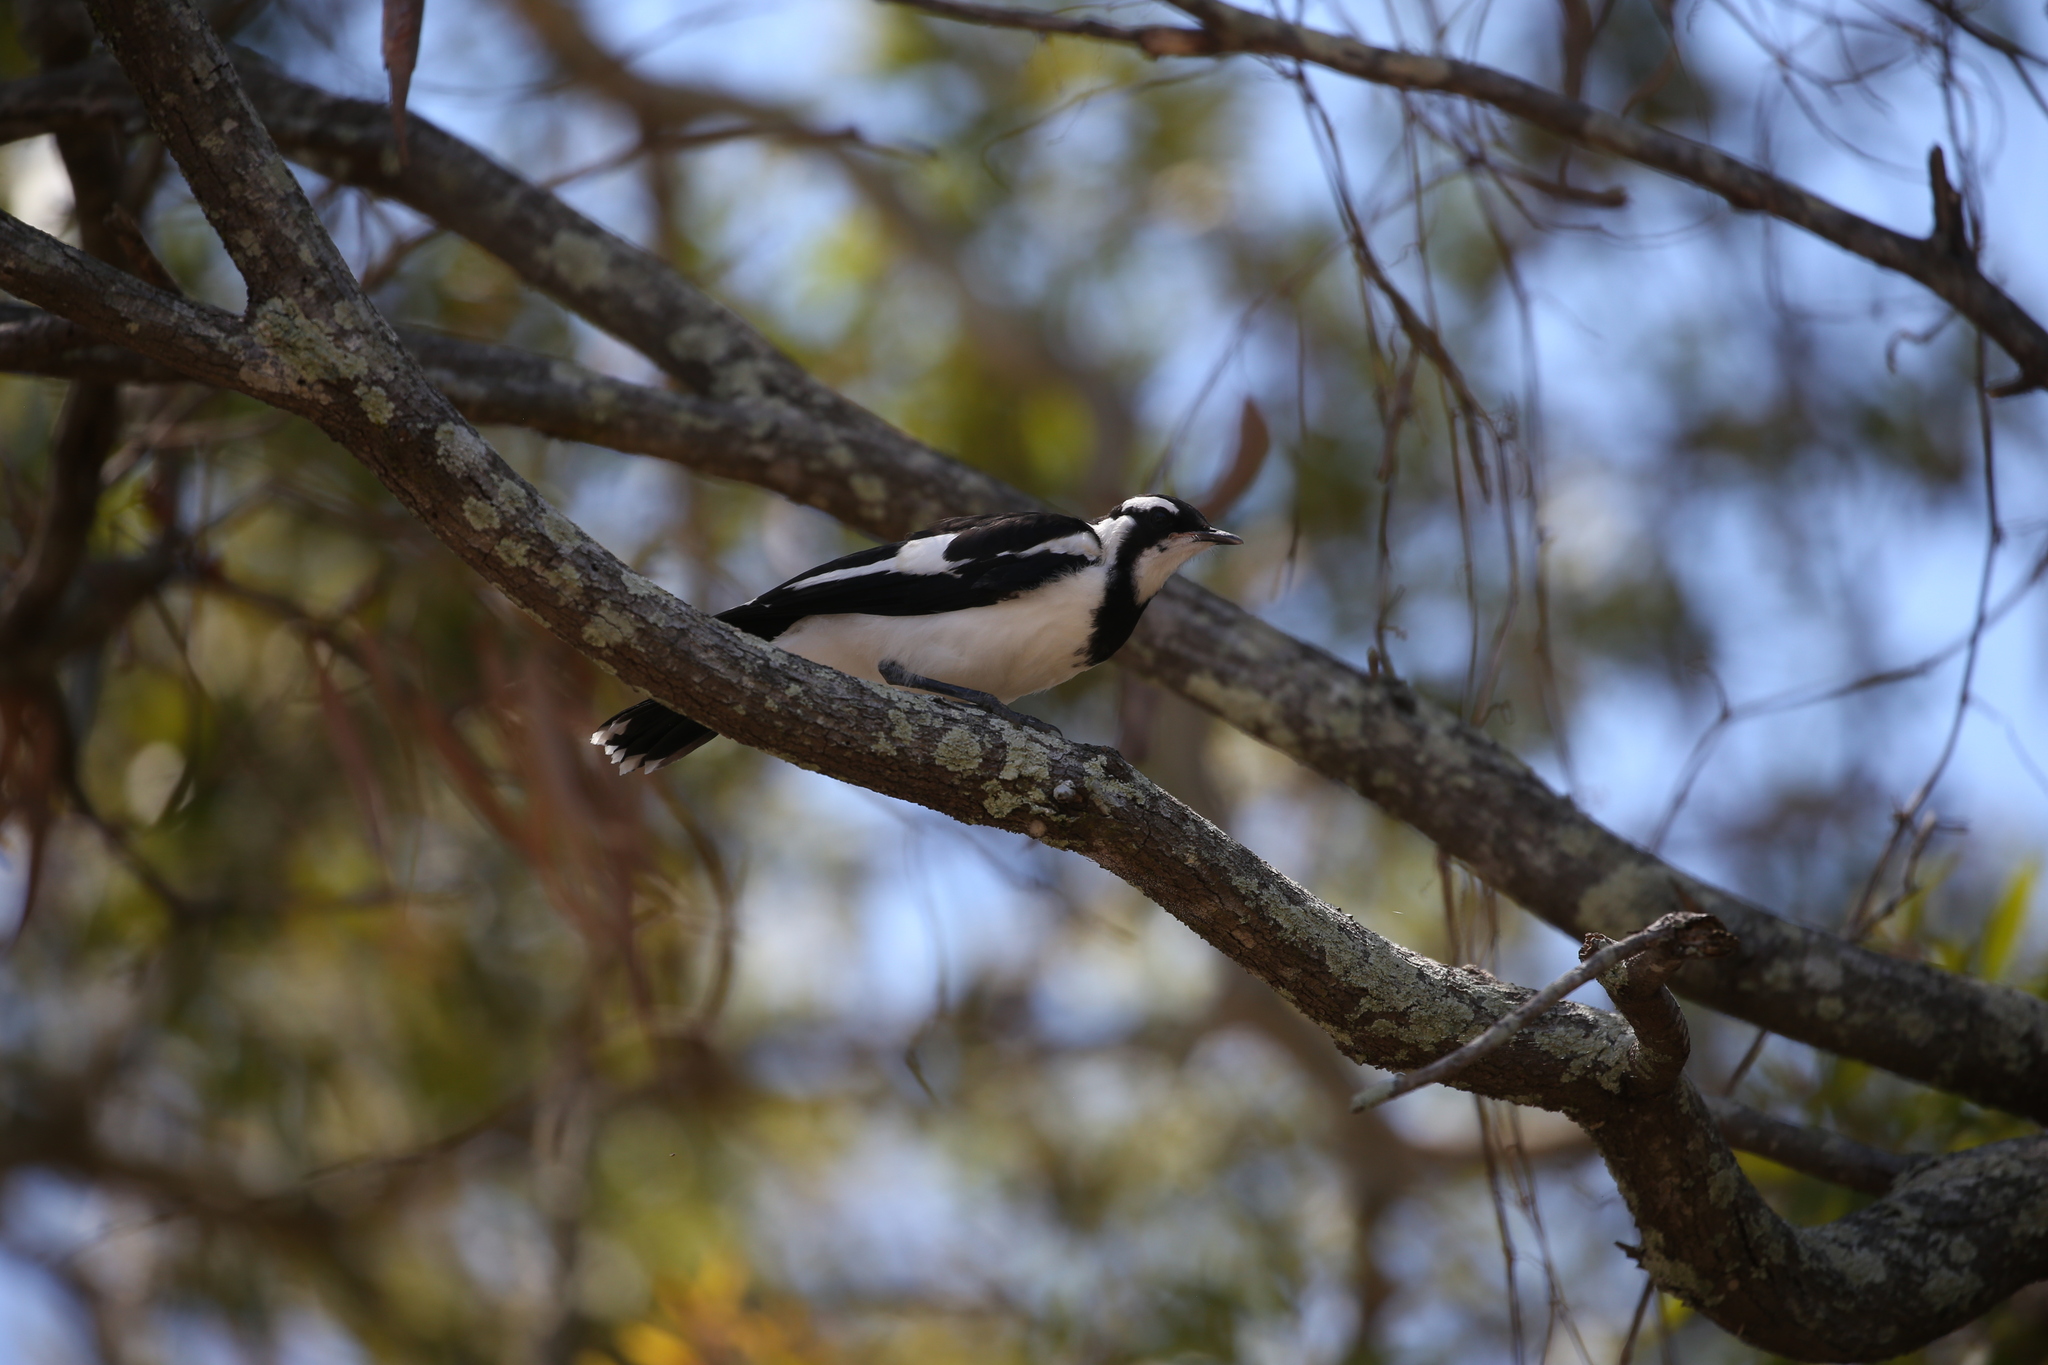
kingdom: Animalia
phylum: Chordata
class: Aves
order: Passeriformes
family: Monarchidae
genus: Grallina
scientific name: Grallina cyanoleuca
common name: Magpie-lark
